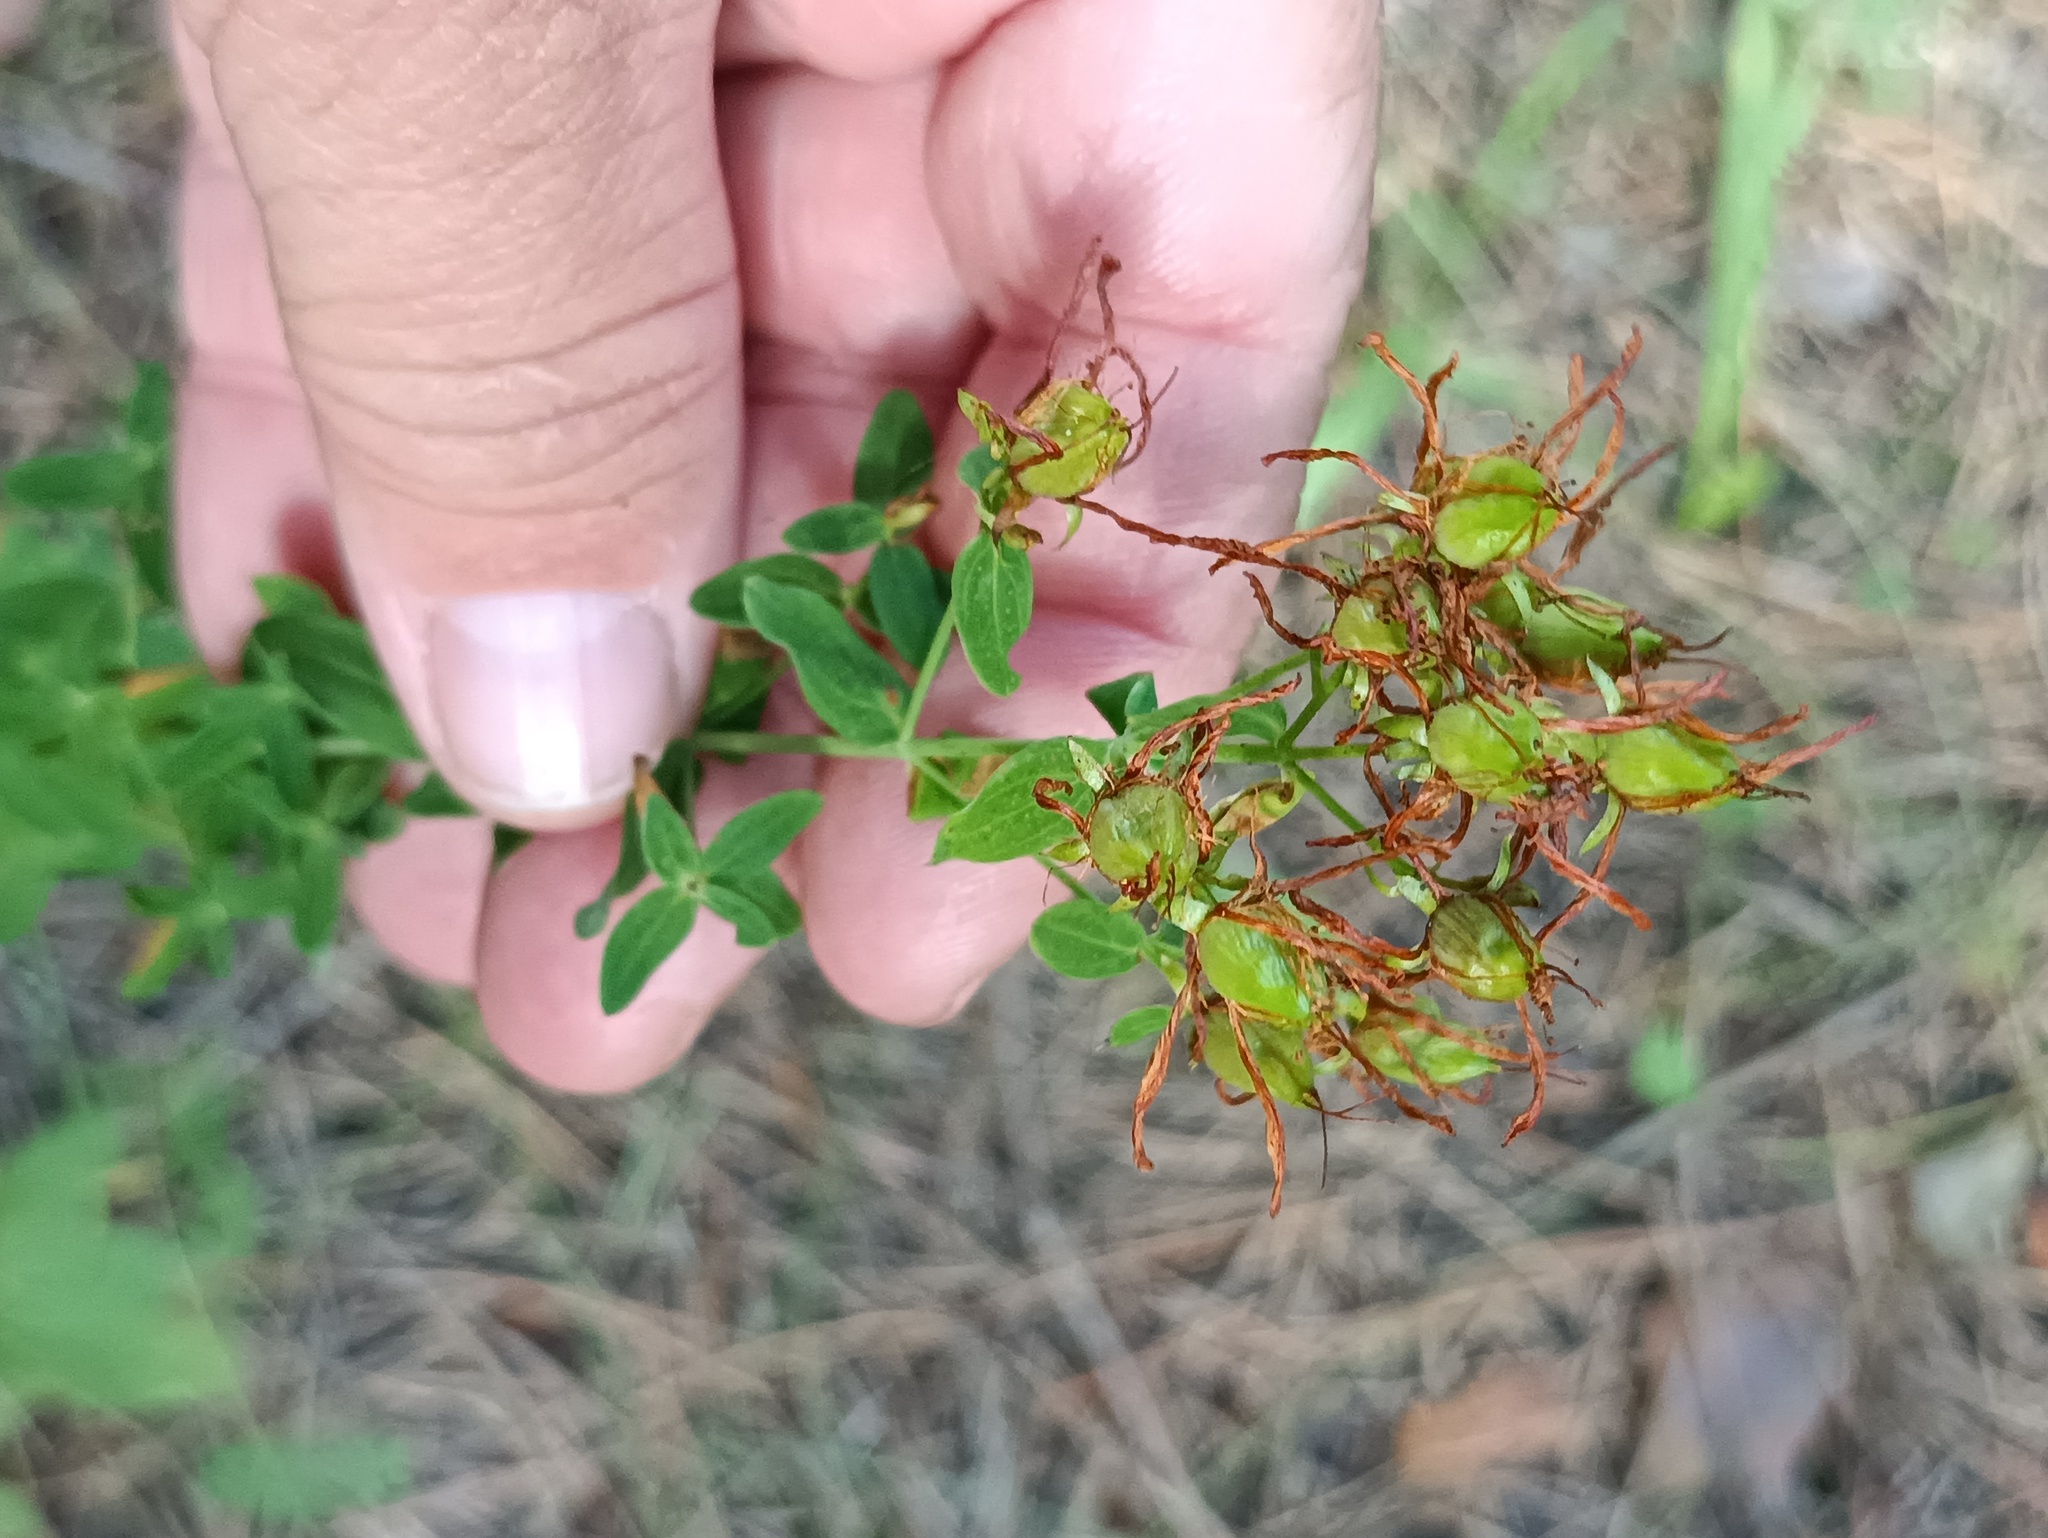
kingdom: Plantae
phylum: Tracheophyta
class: Magnoliopsida
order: Malpighiales
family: Hypericaceae
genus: Hypericum
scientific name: Hypericum perforatum
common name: Common st. johnswort
